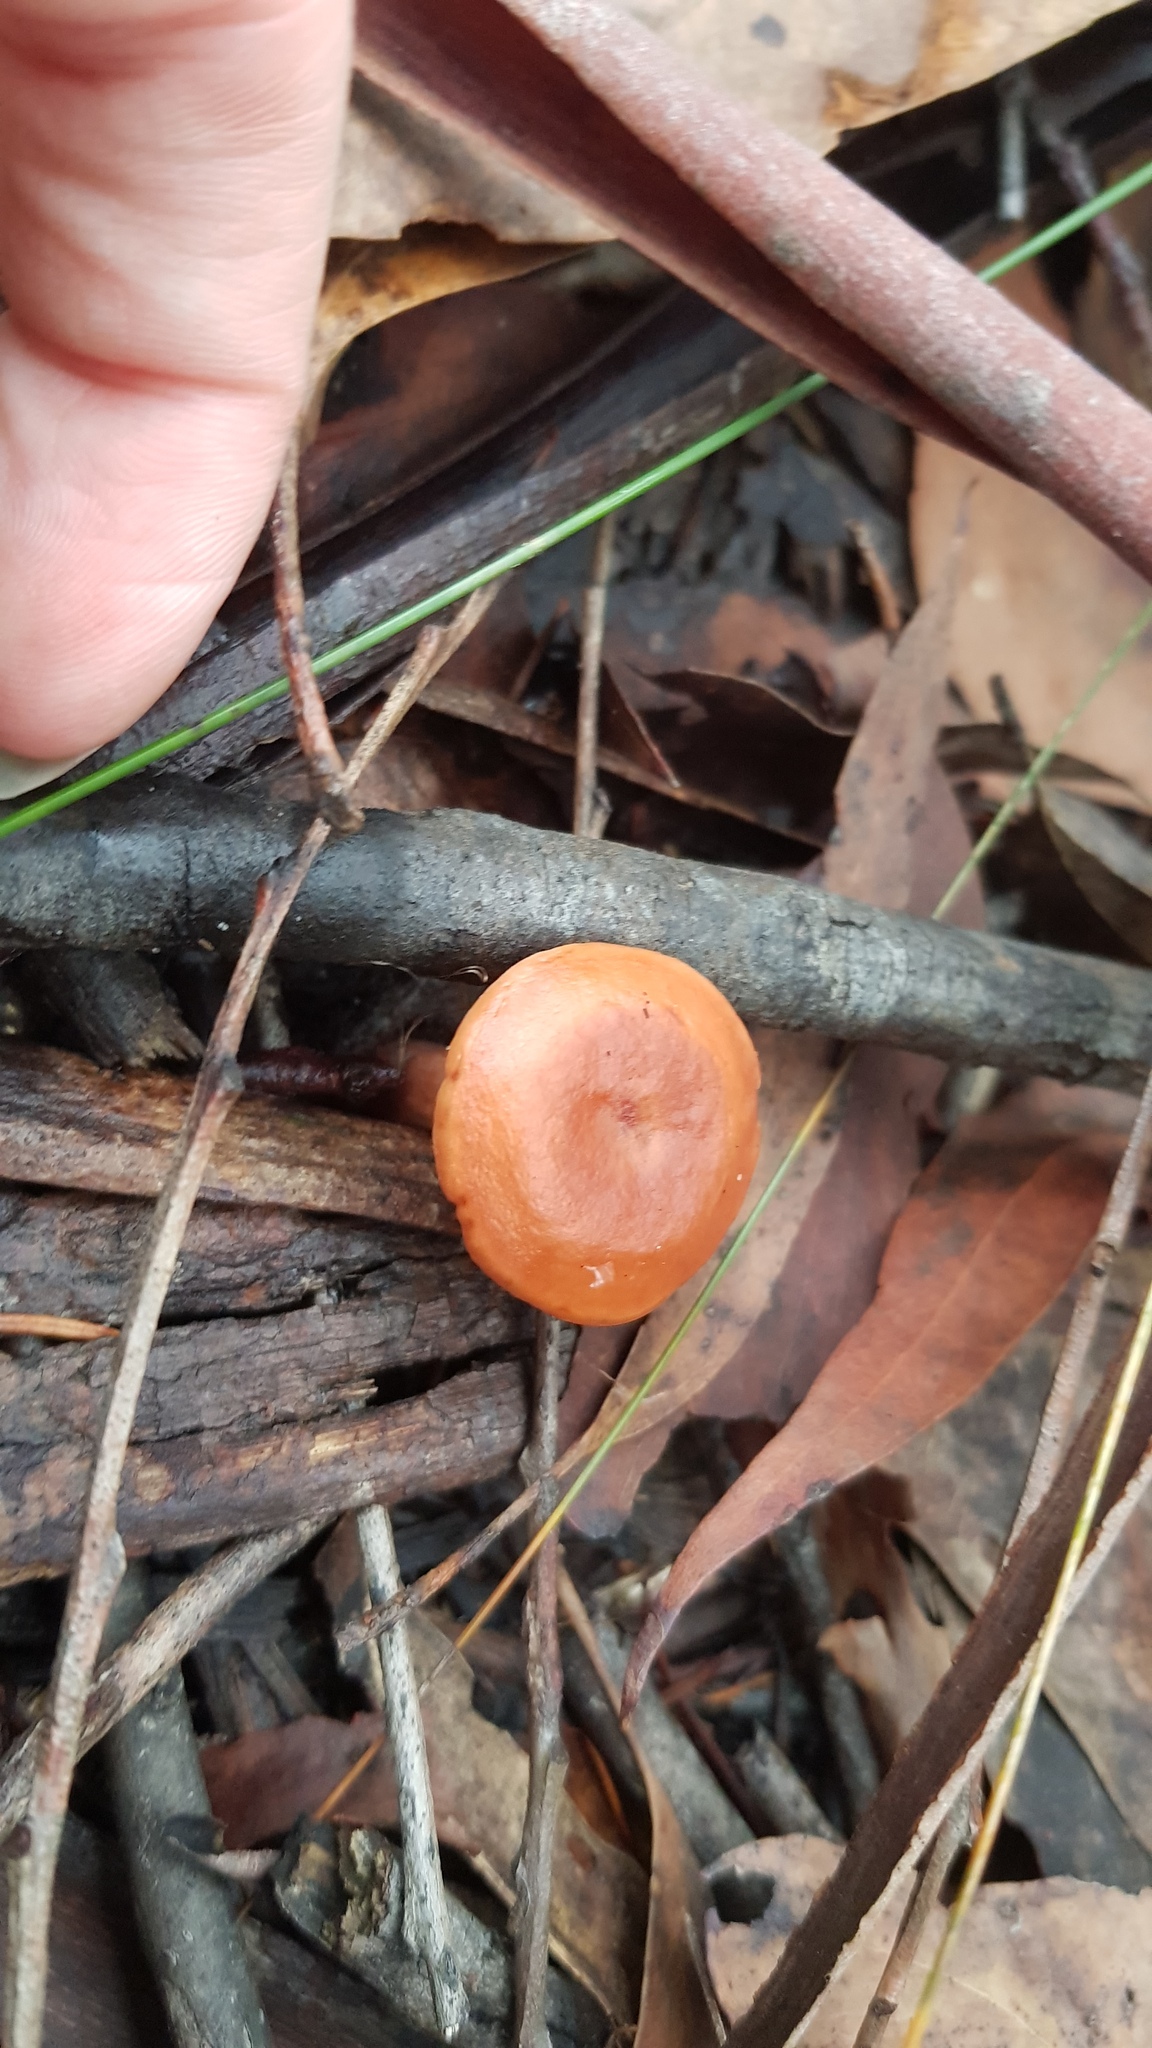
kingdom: Fungi
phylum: Basidiomycota
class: Agaricomycetes
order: Russulales
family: Russulaceae
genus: Lactarius
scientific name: Lactarius eucalypti
